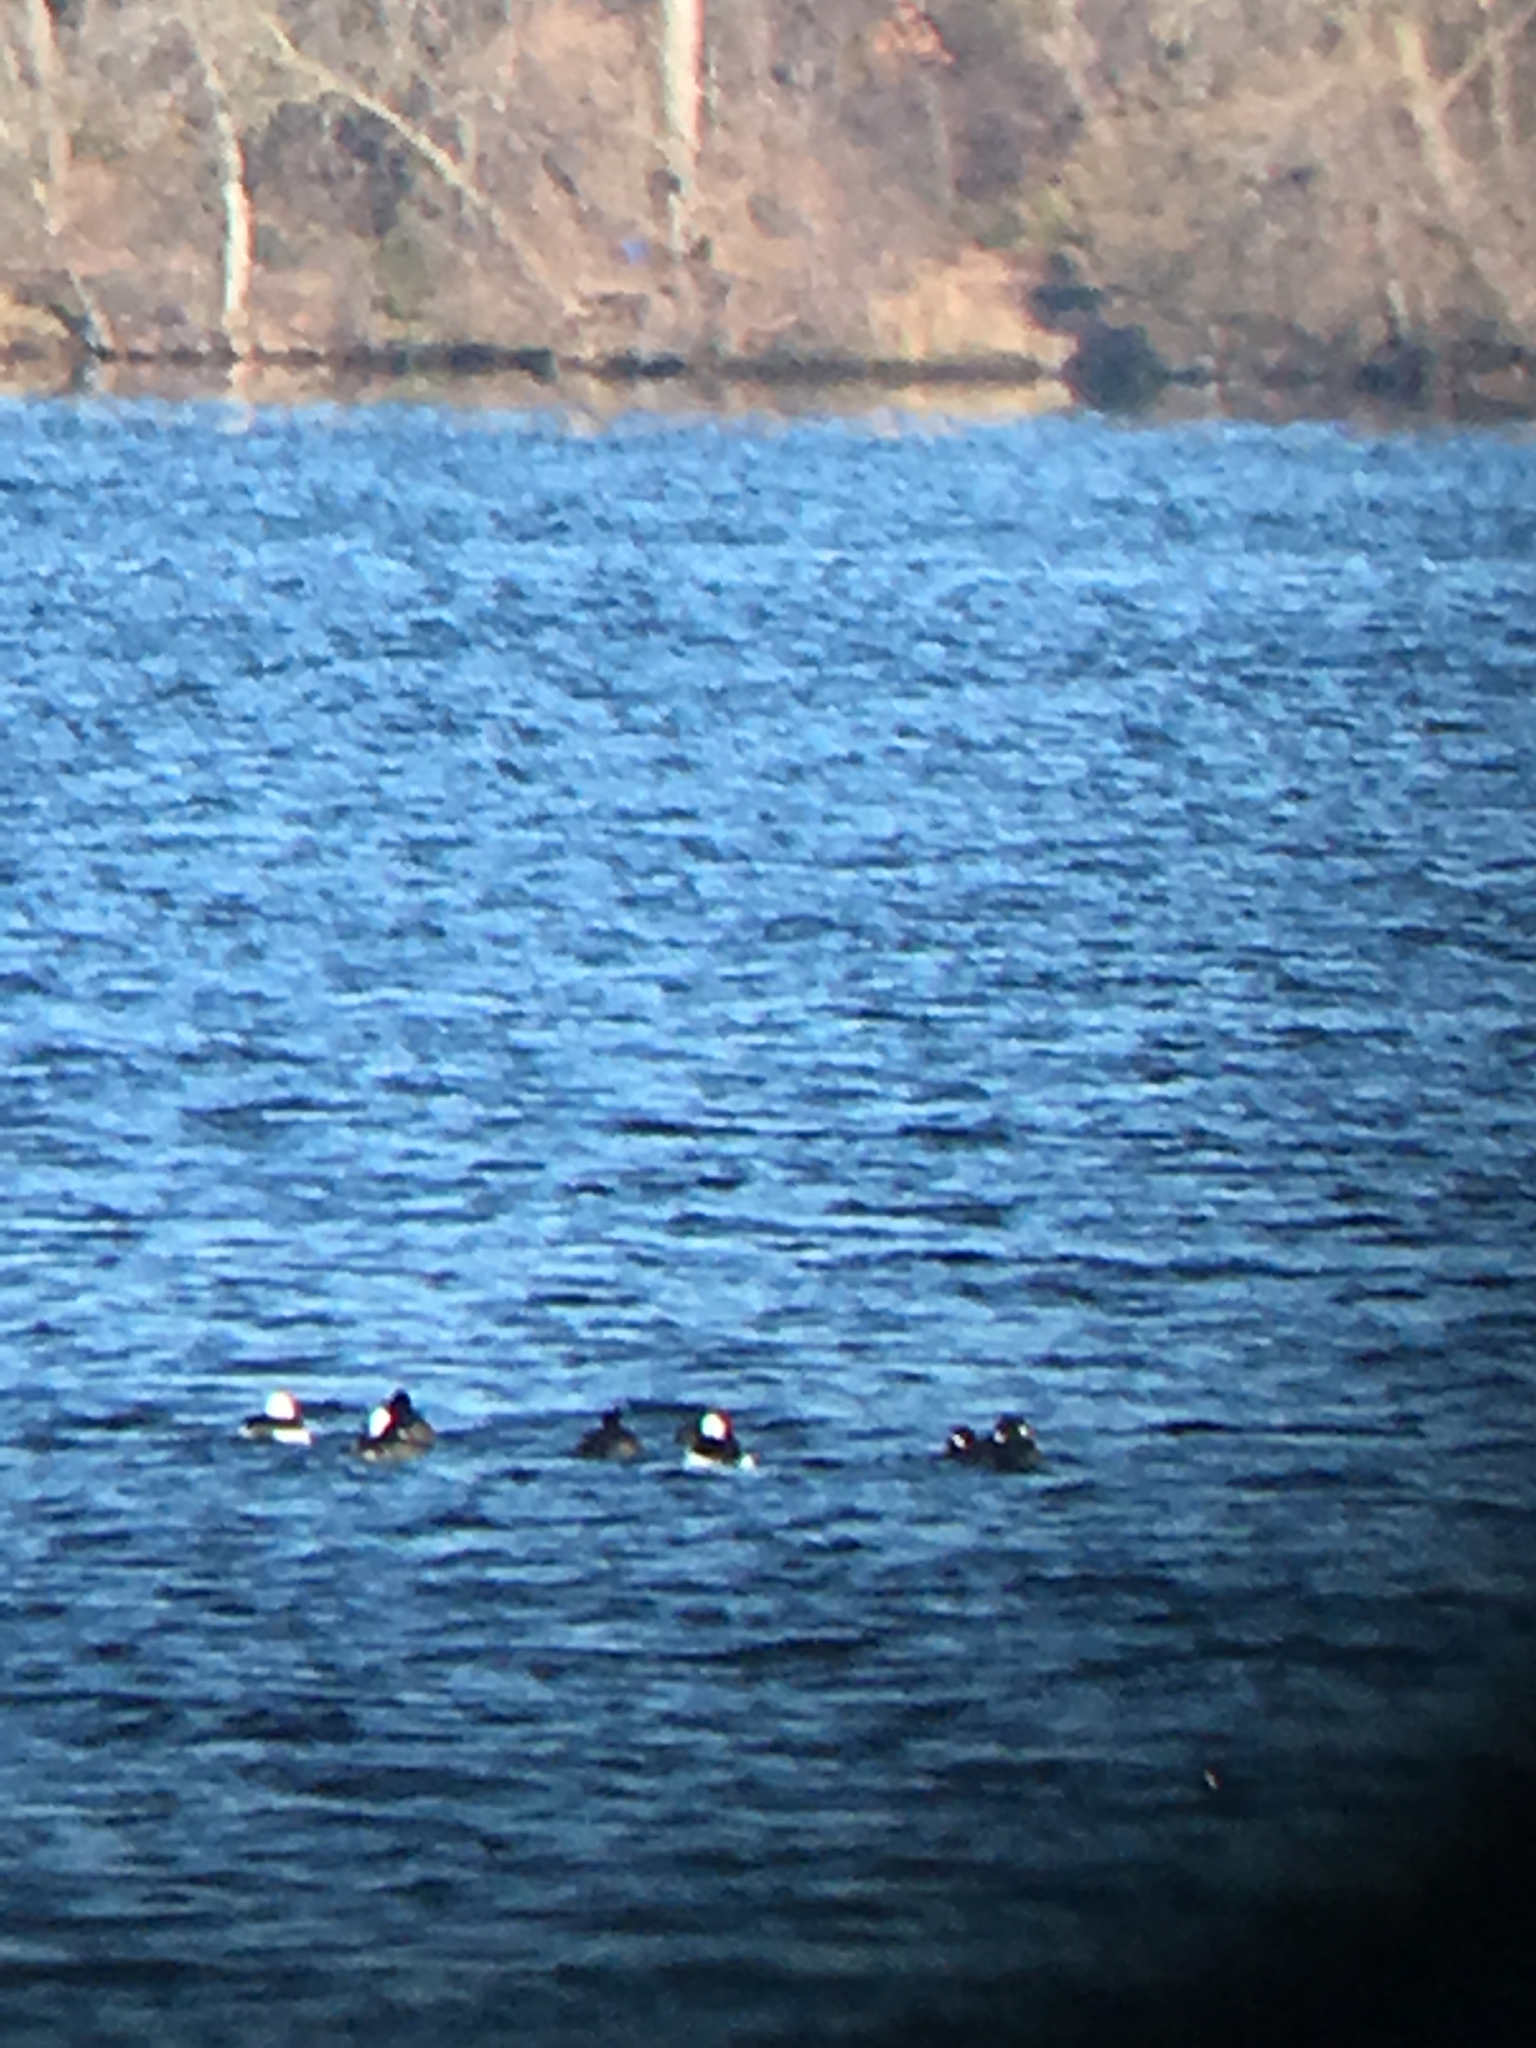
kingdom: Animalia
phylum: Chordata
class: Aves
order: Anseriformes
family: Anatidae
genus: Bucephala
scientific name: Bucephala albeola
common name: Bufflehead
